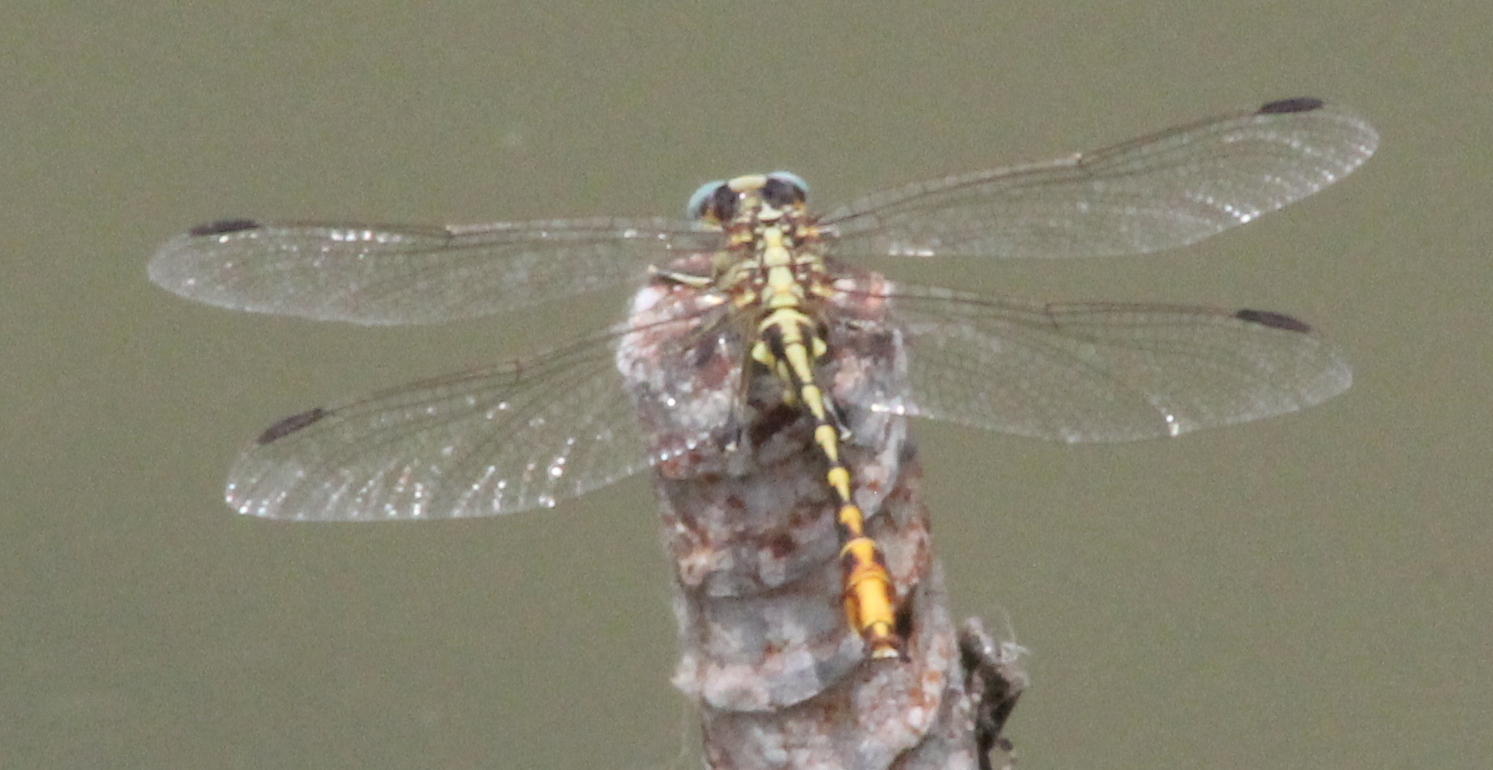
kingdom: Animalia
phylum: Arthropoda
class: Insecta
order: Odonata
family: Gomphidae
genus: Phanogomphus
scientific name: Phanogomphus militaris
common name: Sulphur-tipped clubtail
